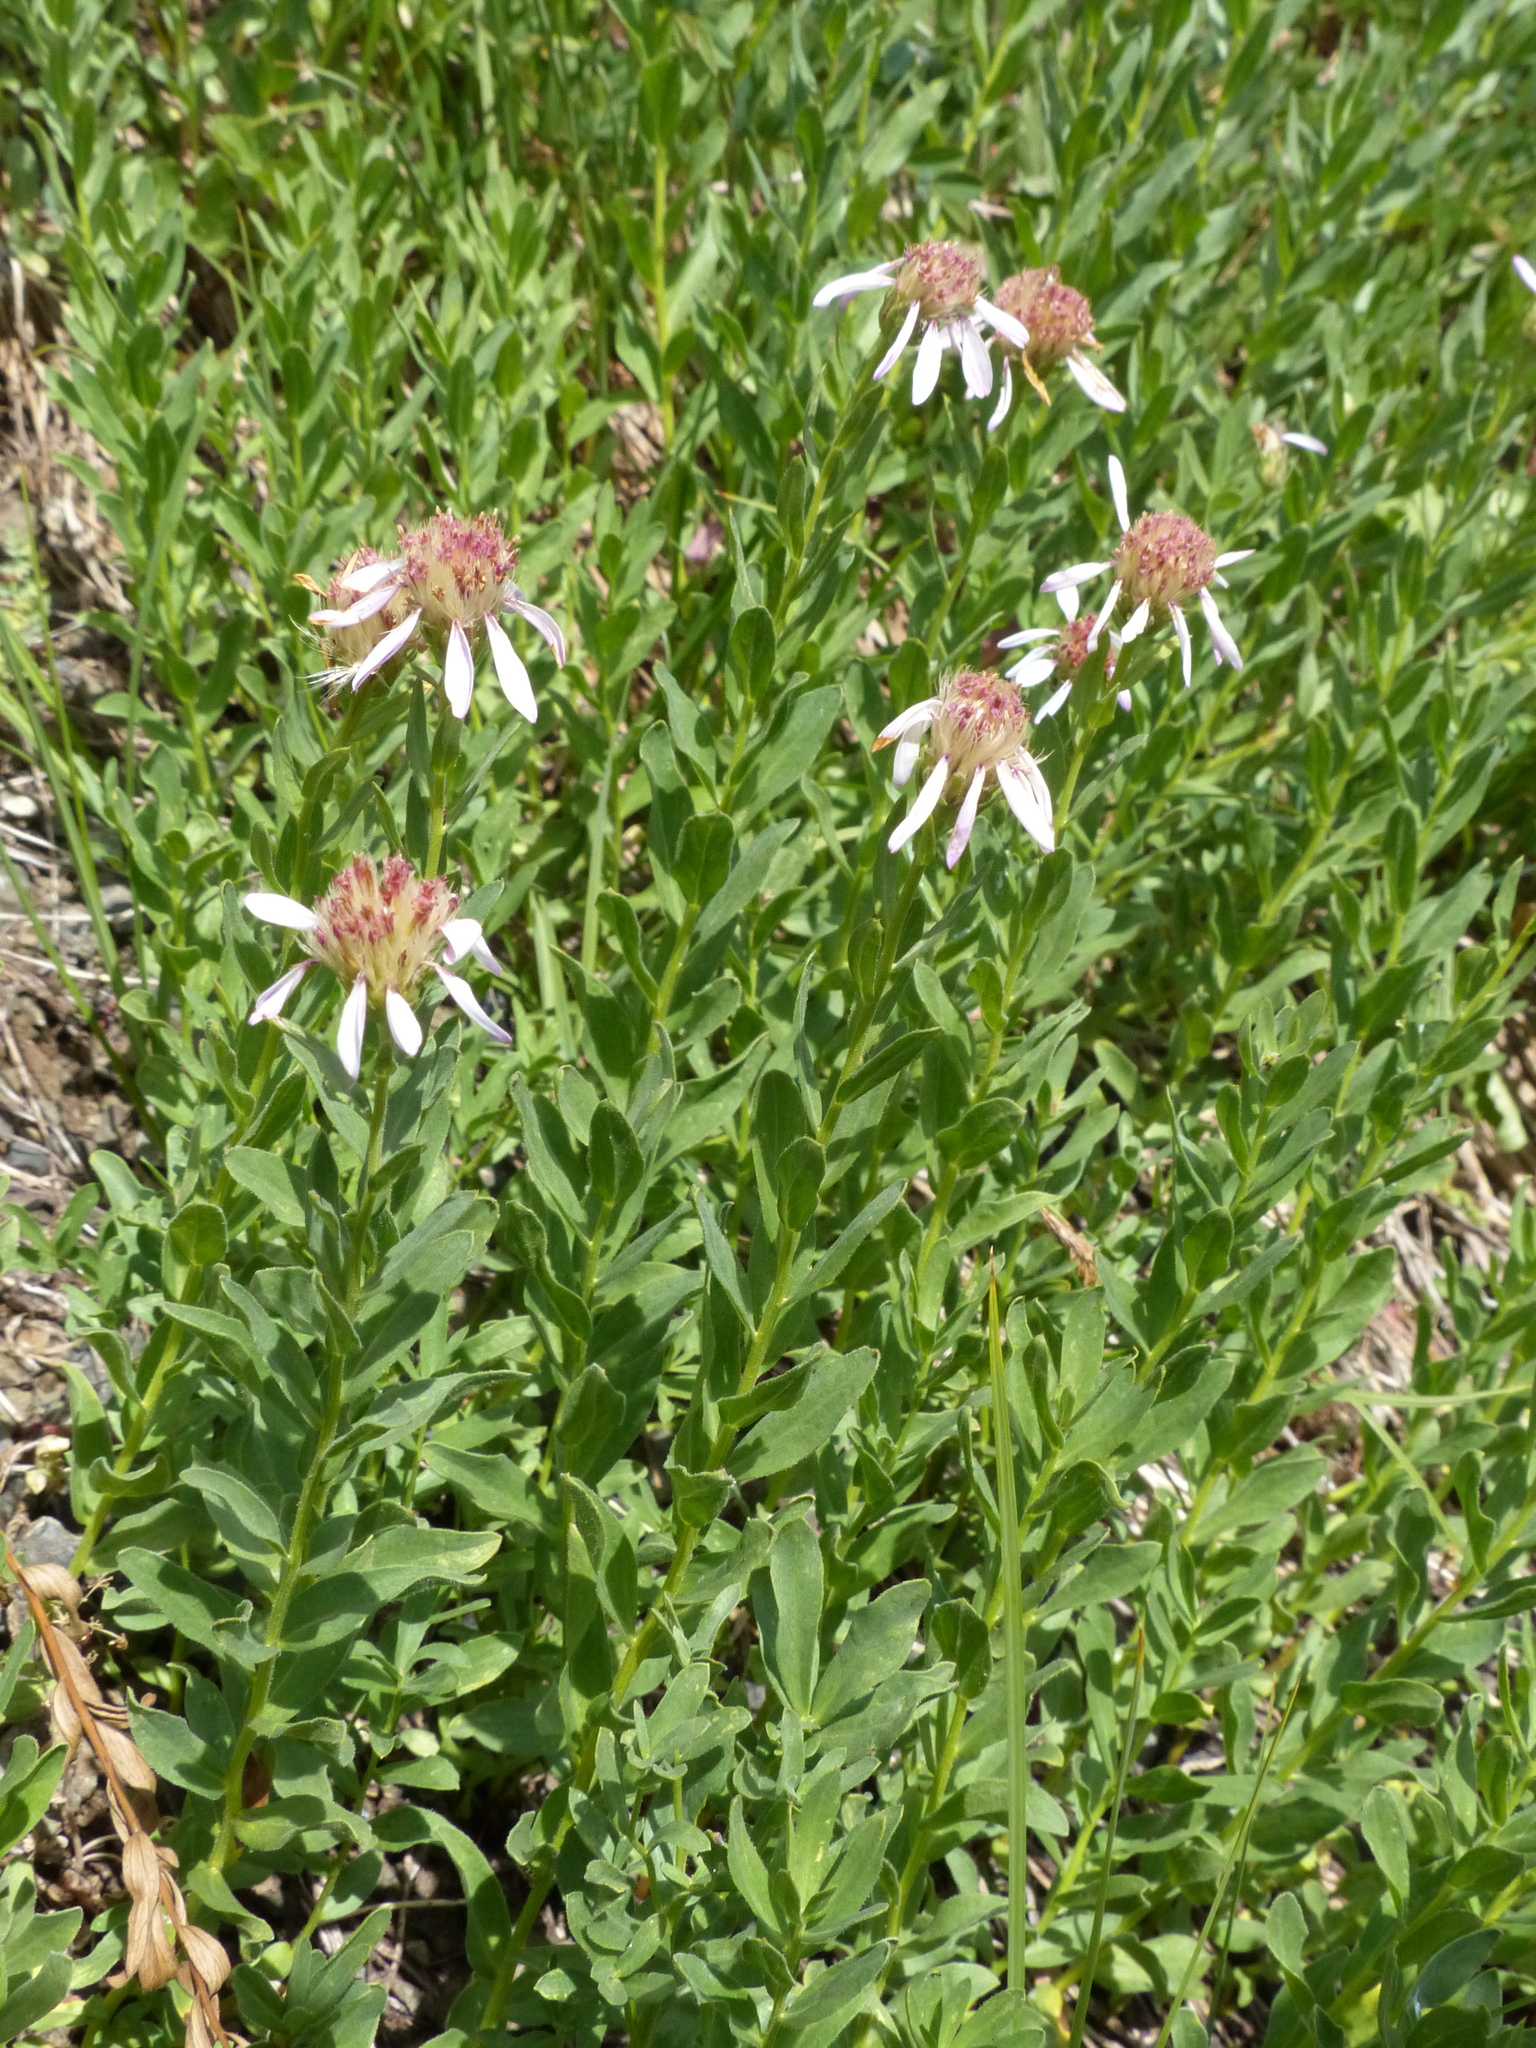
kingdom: Plantae
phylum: Tracheophyta
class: Magnoliopsida
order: Asterales
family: Asteraceae
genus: Eucephalus
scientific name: Eucephalus paucicapitatus
